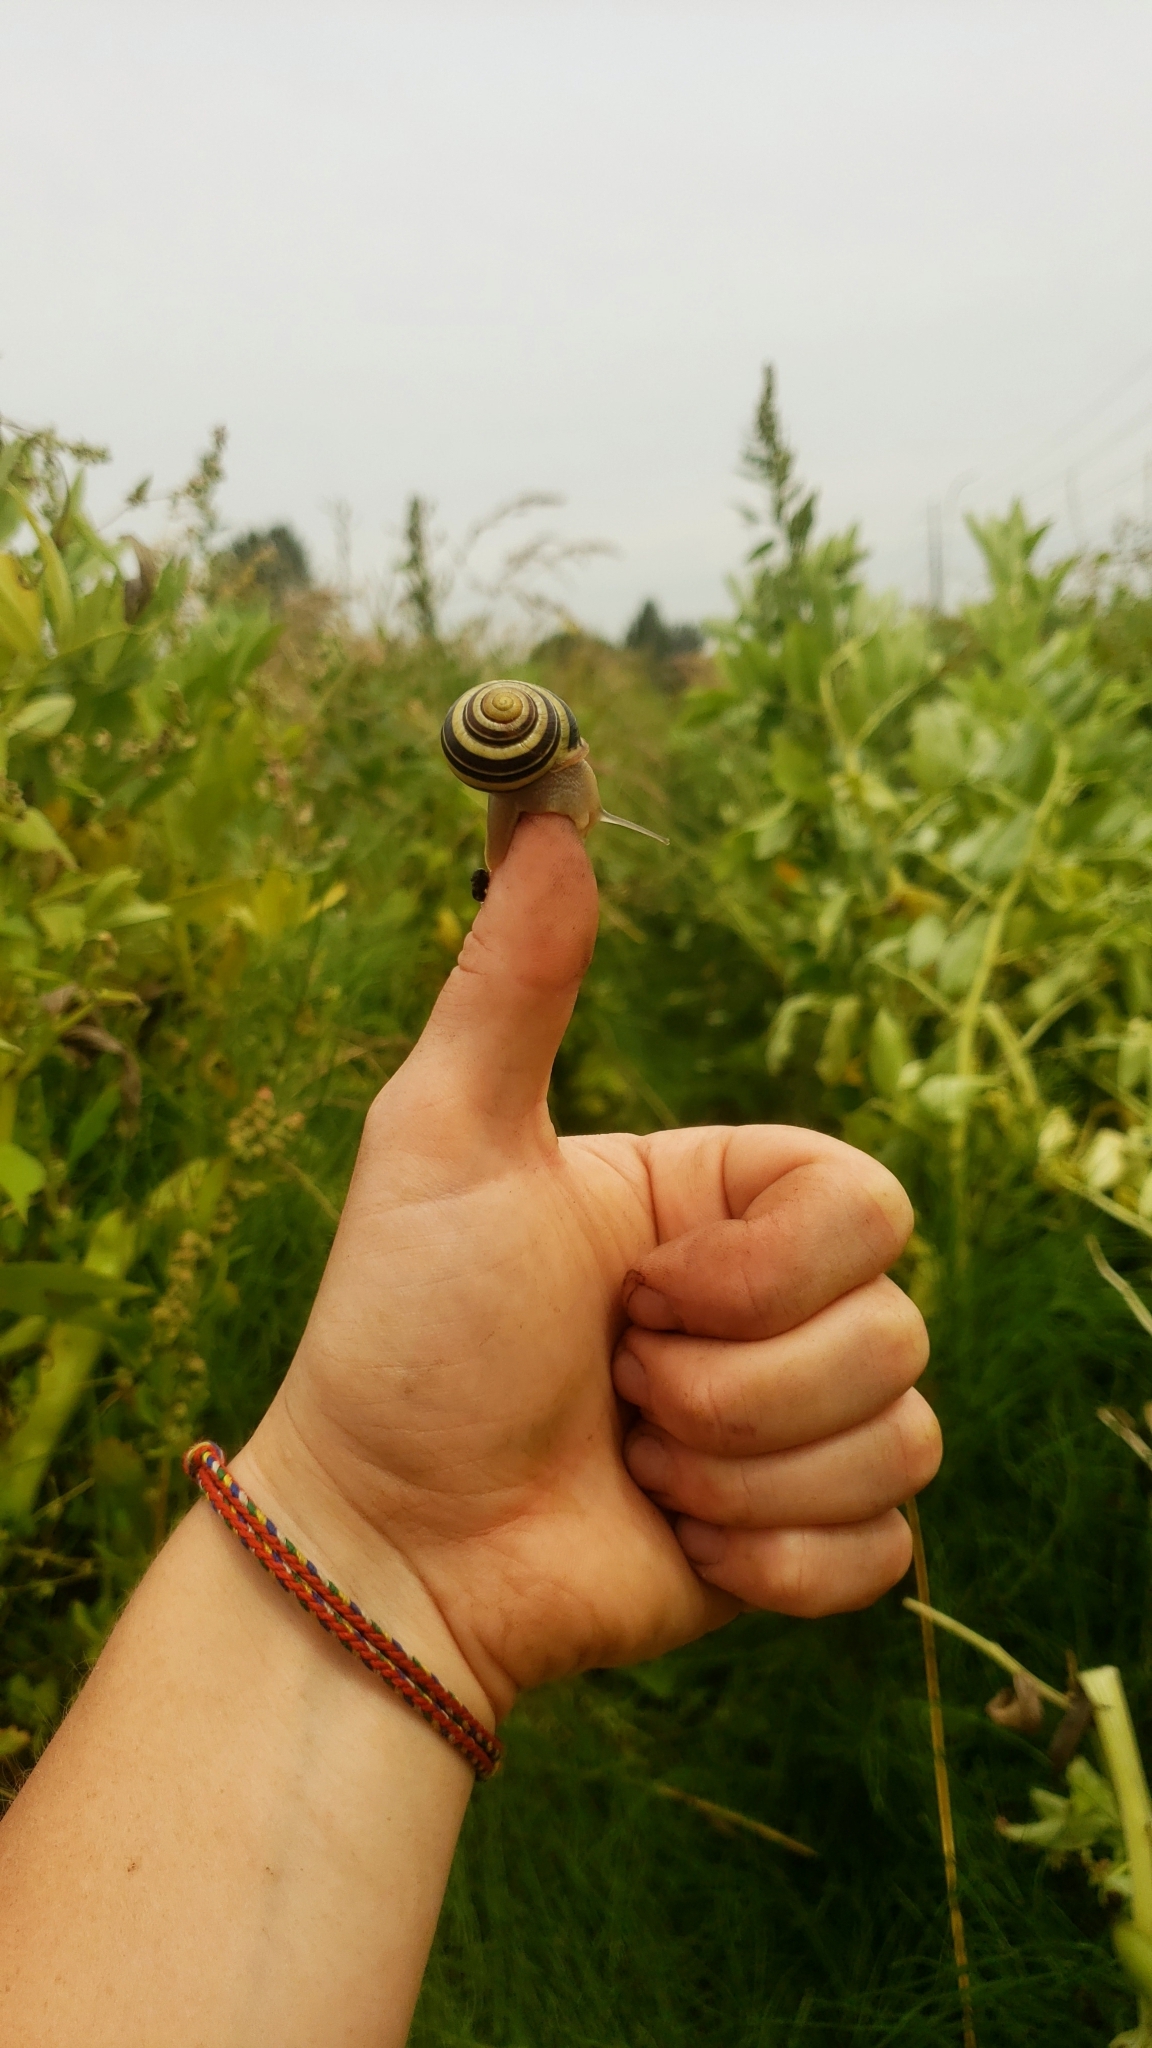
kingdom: Animalia
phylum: Mollusca
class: Gastropoda
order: Stylommatophora
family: Helicidae
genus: Cepaea
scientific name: Cepaea nemoralis
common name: Grovesnail
